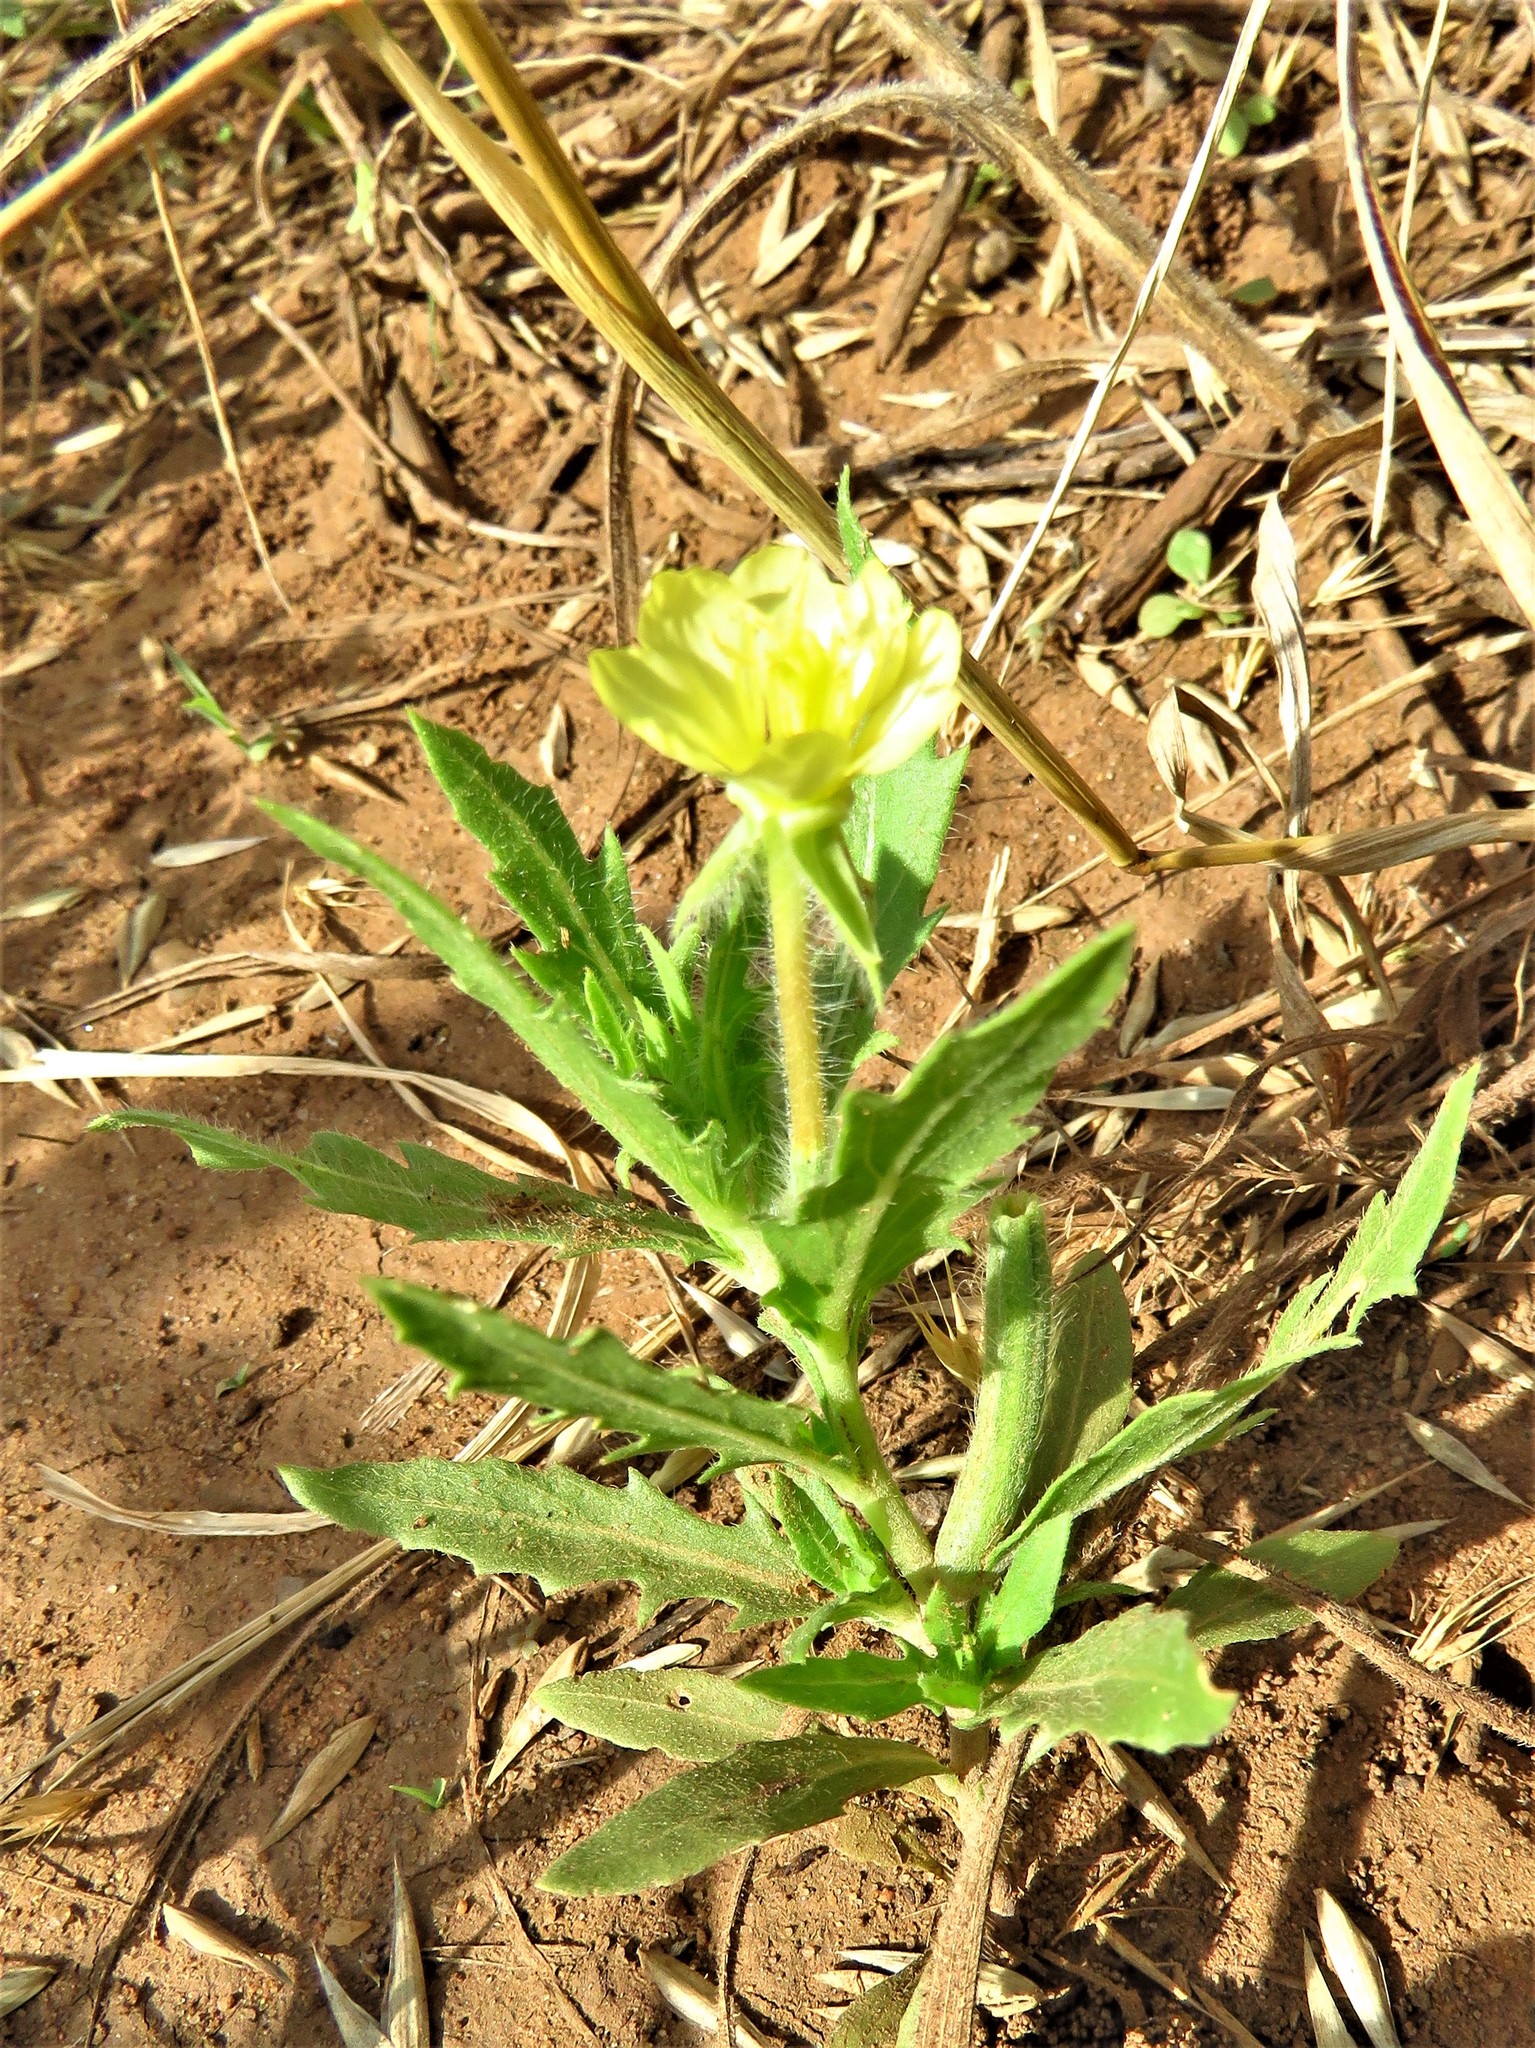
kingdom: Plantae
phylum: Tracheophyta
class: Magnoliopsida
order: Myrtales
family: Onagraceae
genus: Oenothera
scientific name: Oenothera laciniata
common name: Cut-leaved evening-primrose
